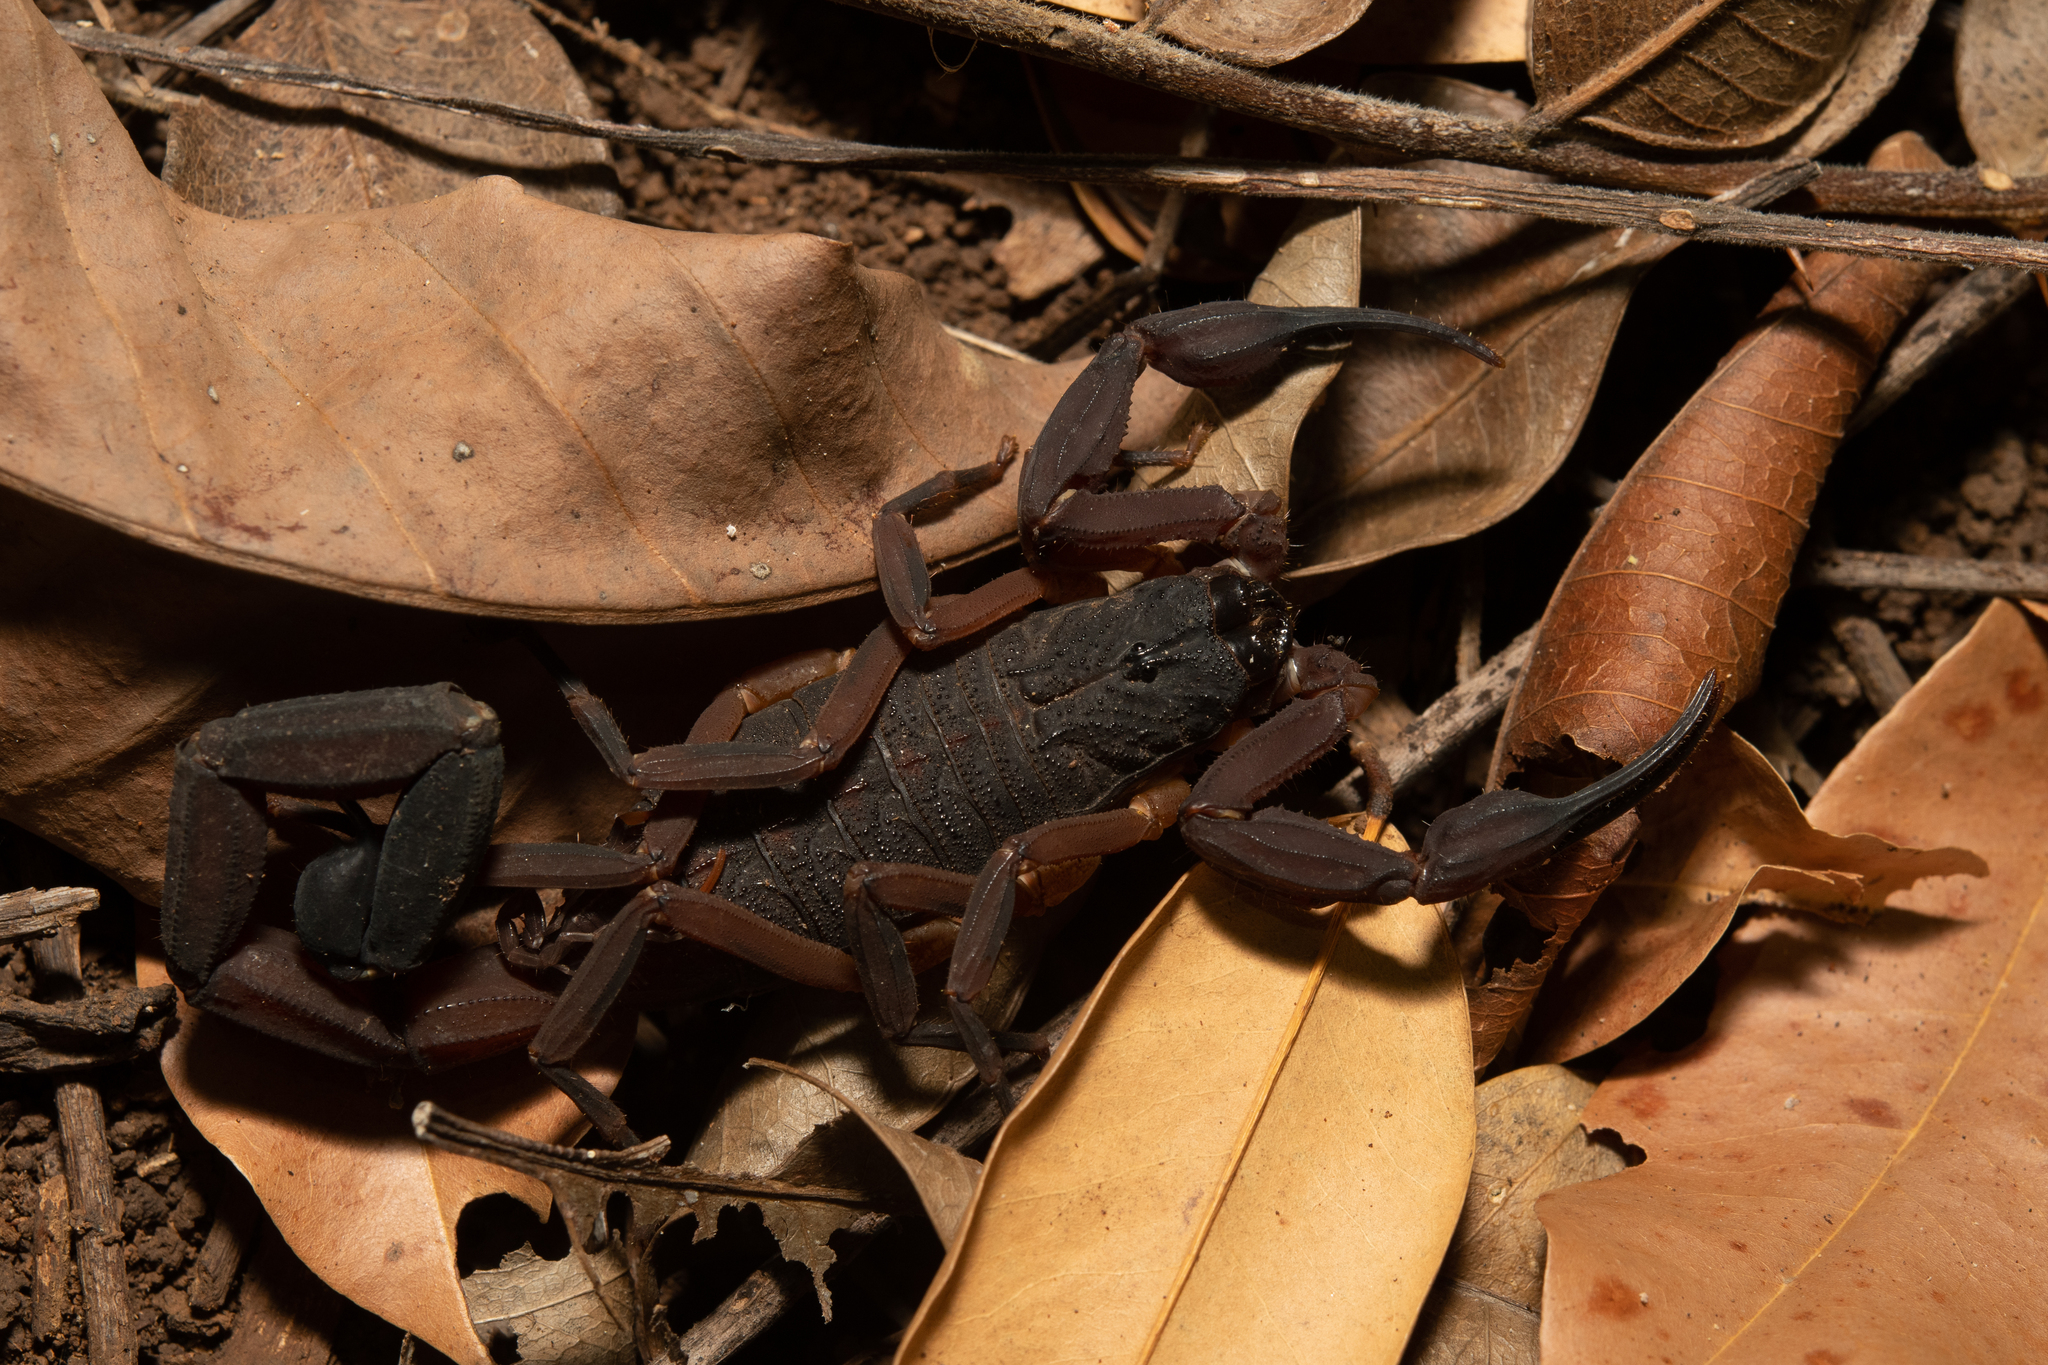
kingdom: Animalia
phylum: Arthropoda
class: Arachnida
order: Scorpiones
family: Buthidae
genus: Centruroides
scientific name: Centruroides gracilis
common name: Scorpions
